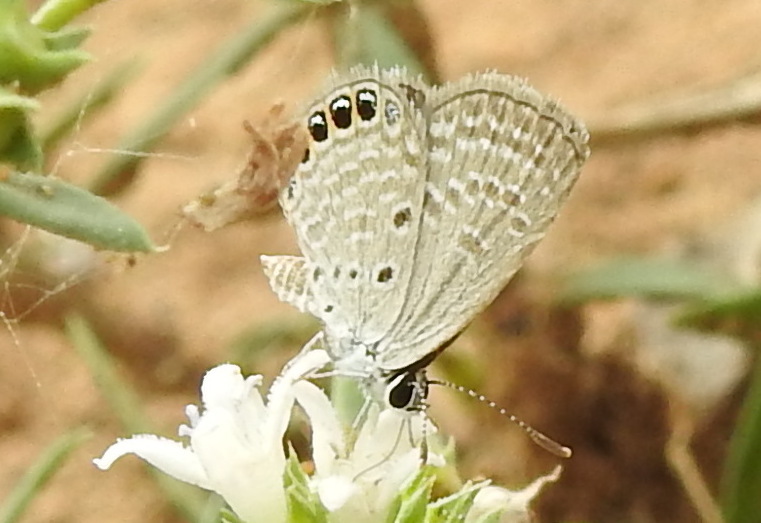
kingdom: Animalia
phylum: Arthropoda
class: Insecta
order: Lepidoptera
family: Lycaenidae
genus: Freyeria
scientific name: Freyeria putli
